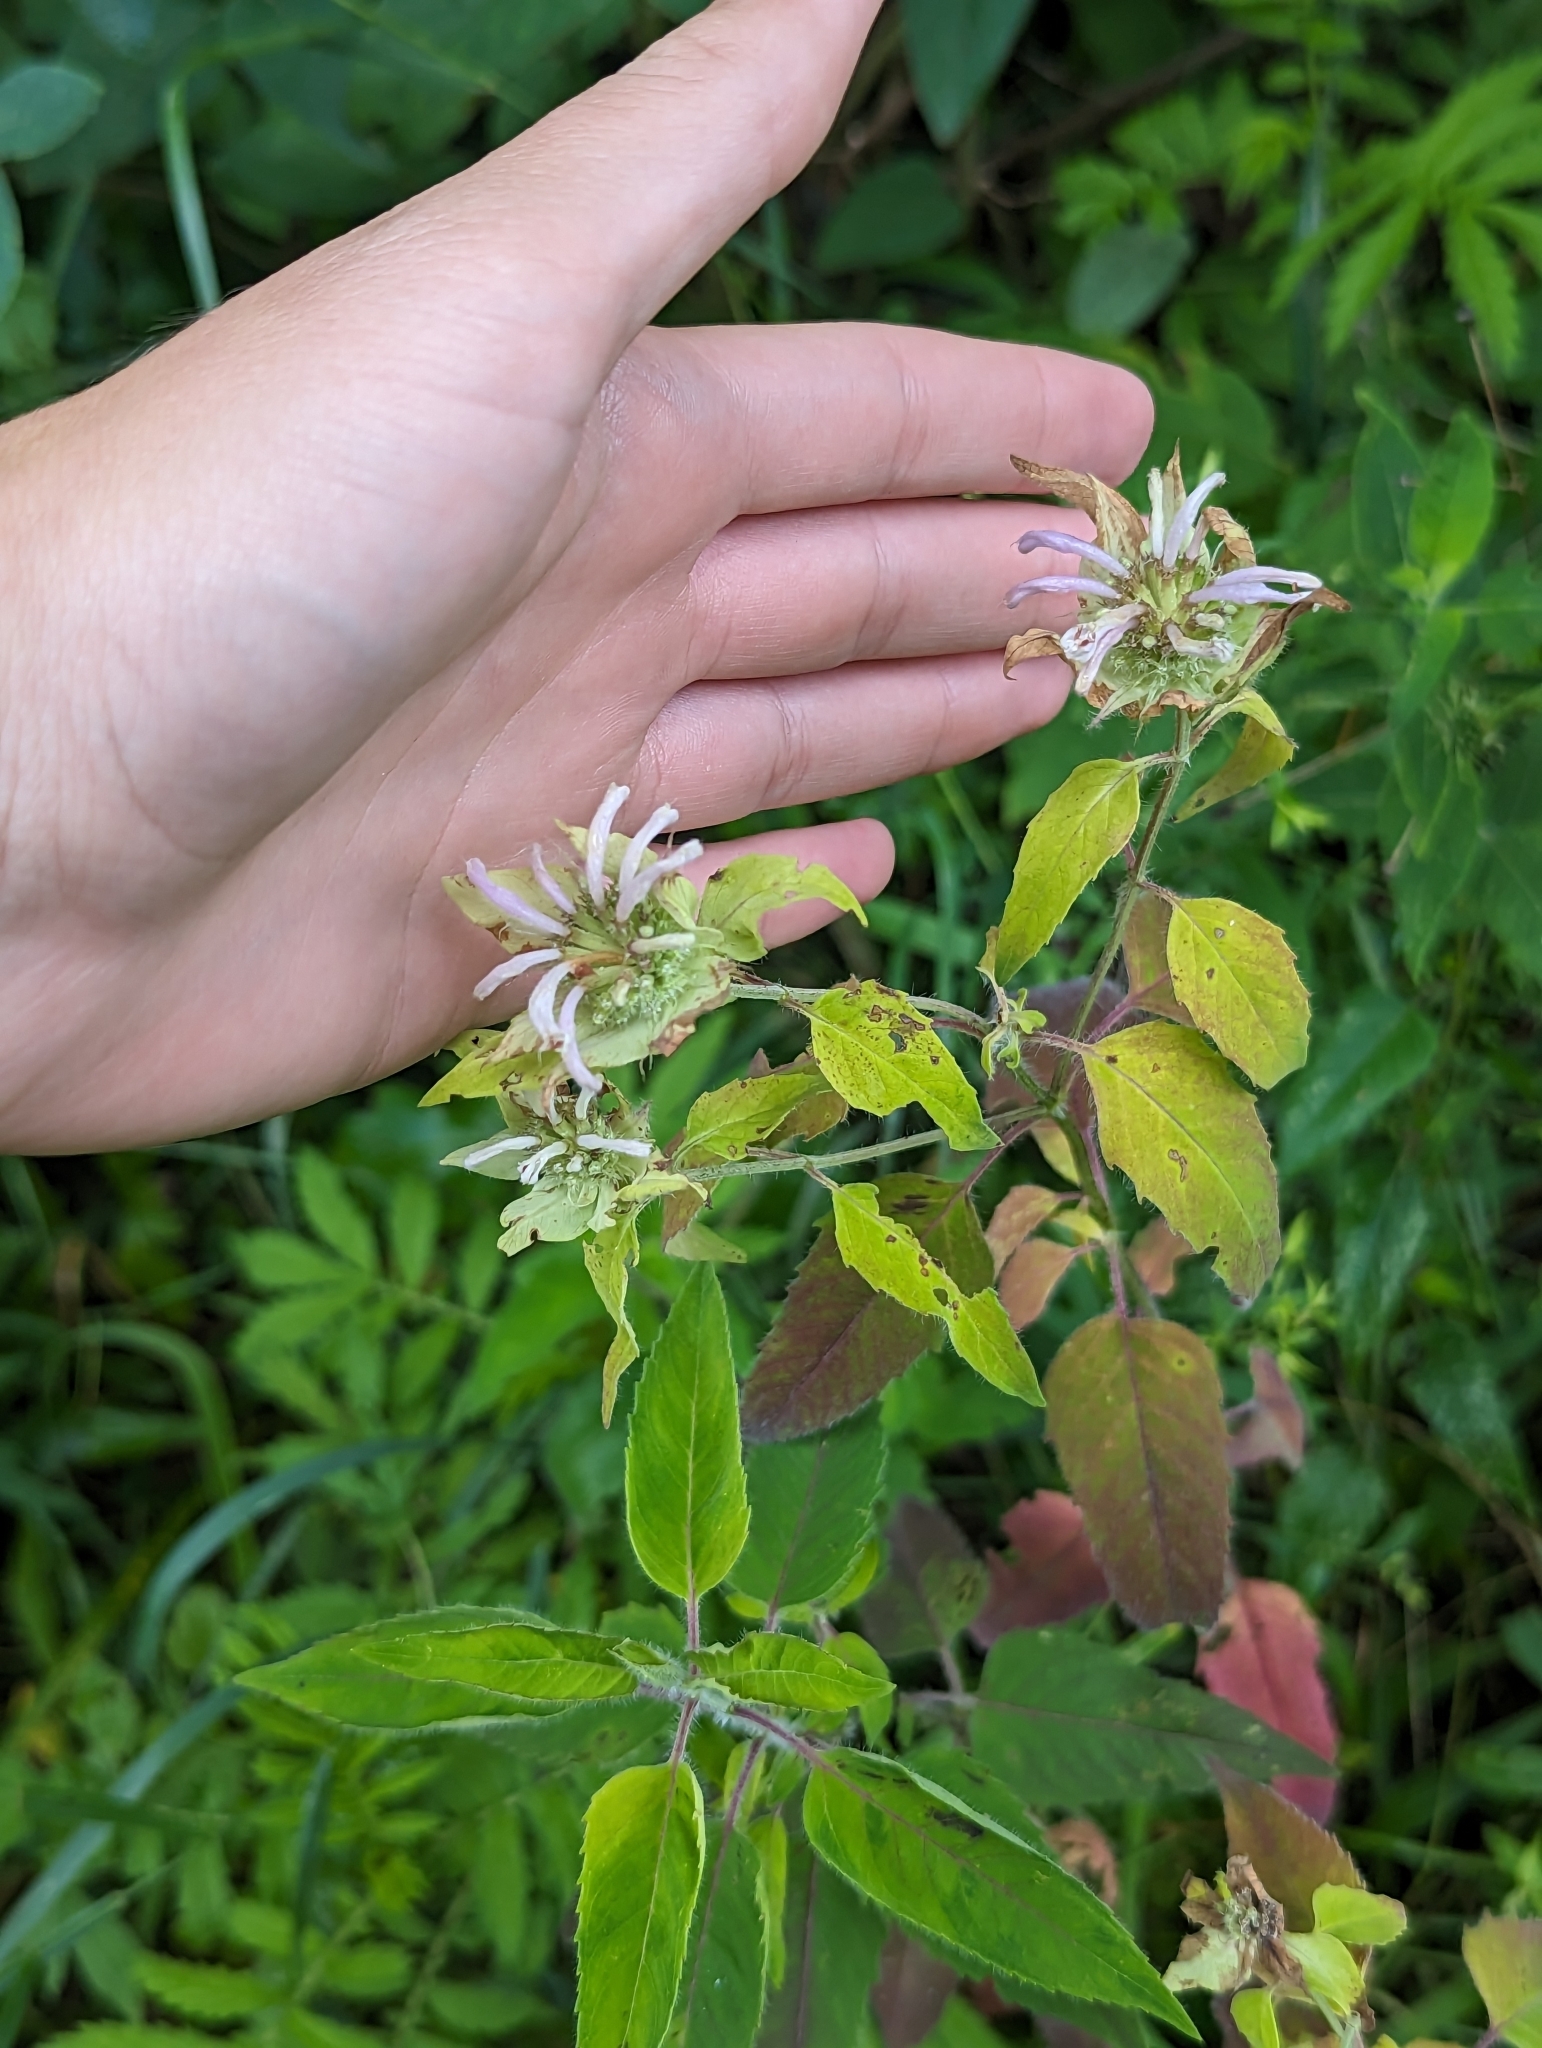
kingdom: Plantae
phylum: Tracheophyta
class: Magnoliopsida
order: Lamiales
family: Lamiaceae
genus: Monarda
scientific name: Monarda fistulosa
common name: Purple beebalm
